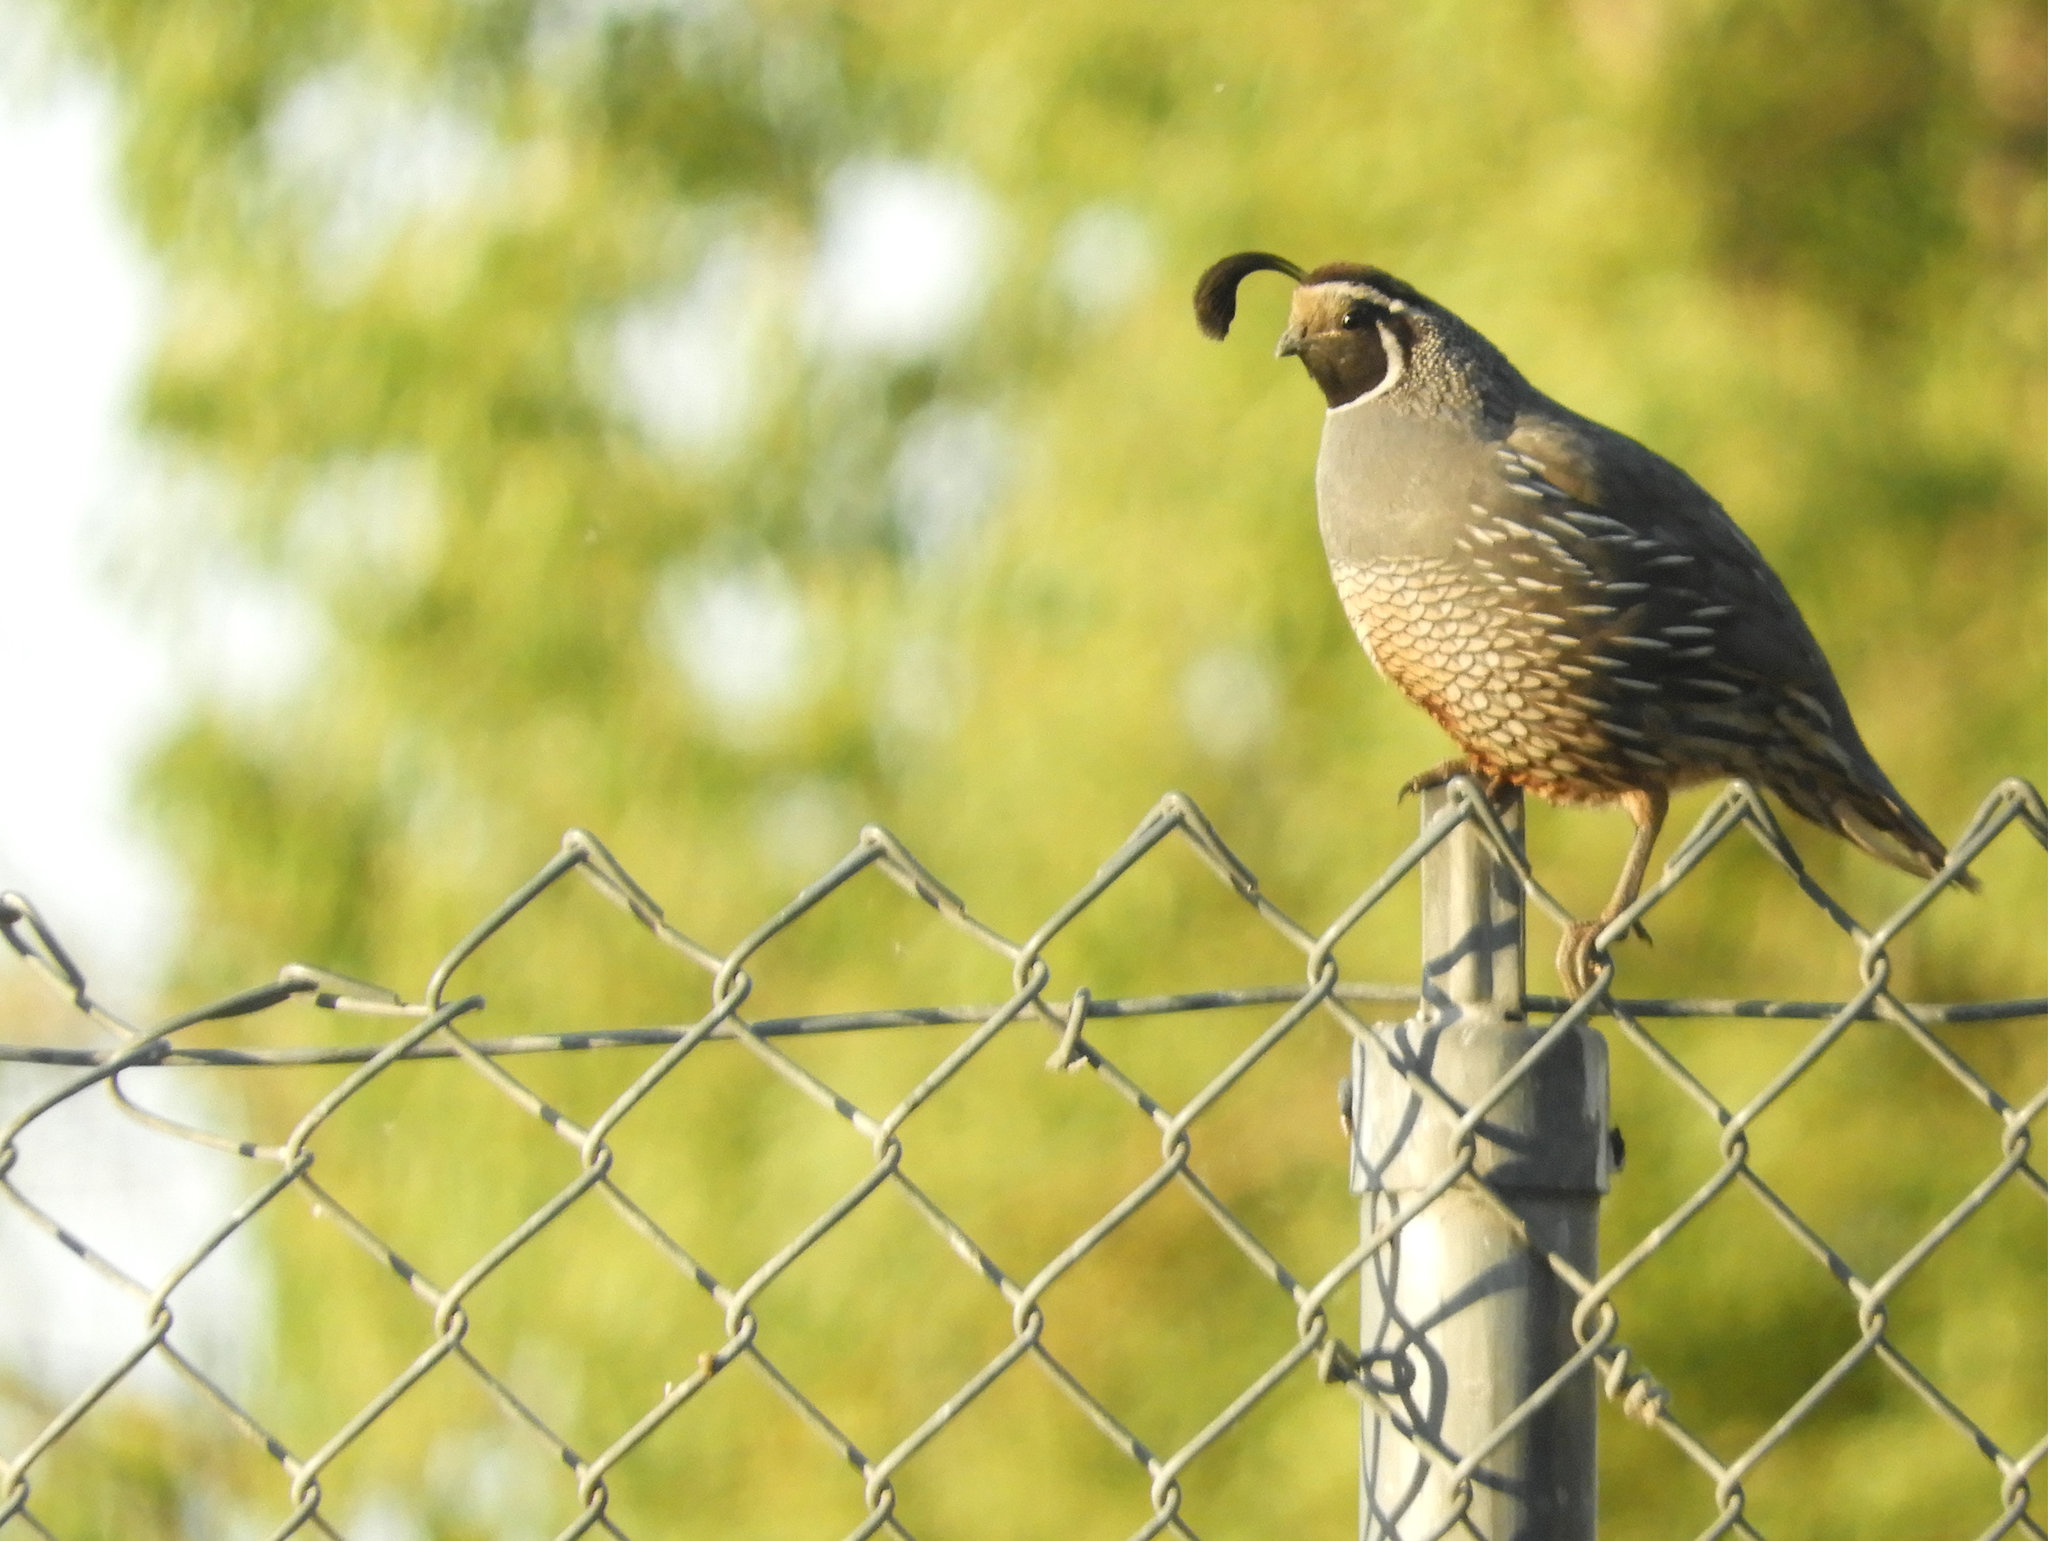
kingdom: Animalia
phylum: Chordata
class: Aves
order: Galliformes
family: Odontophoridae
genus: Callipepla
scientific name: Callipepla californica
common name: California quail
